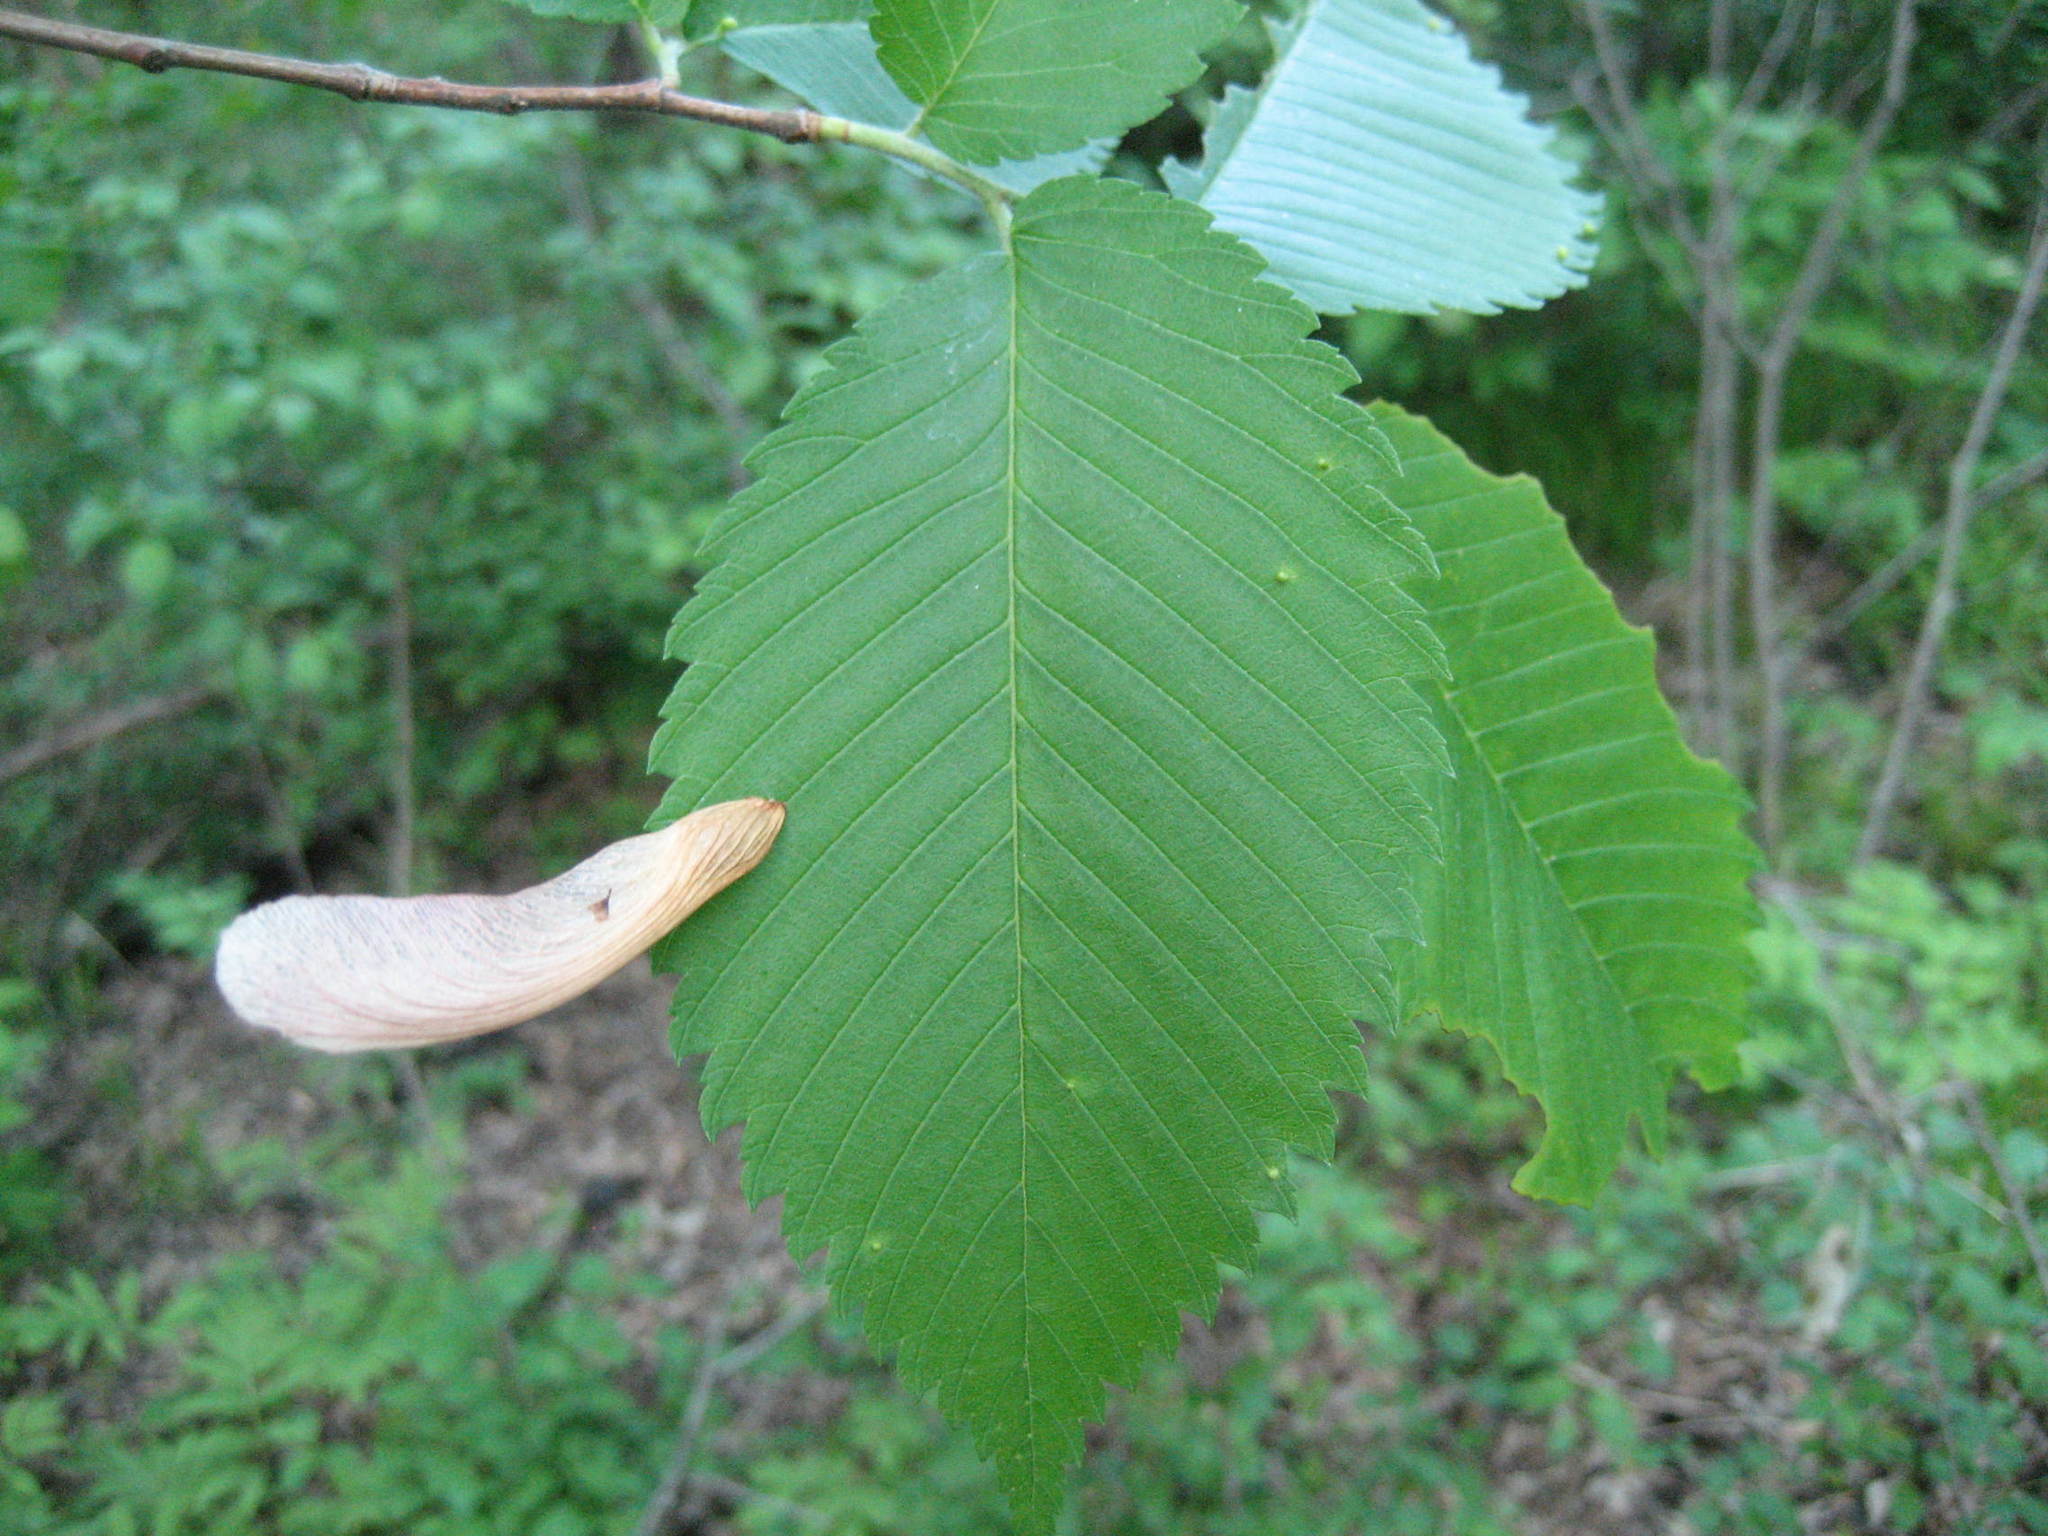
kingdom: Plantae
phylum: Tracheophyta
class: Magnoliopsida
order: Rosales
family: Ulmaceae
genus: Ulmus
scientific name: Ulmus americana
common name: American elm
